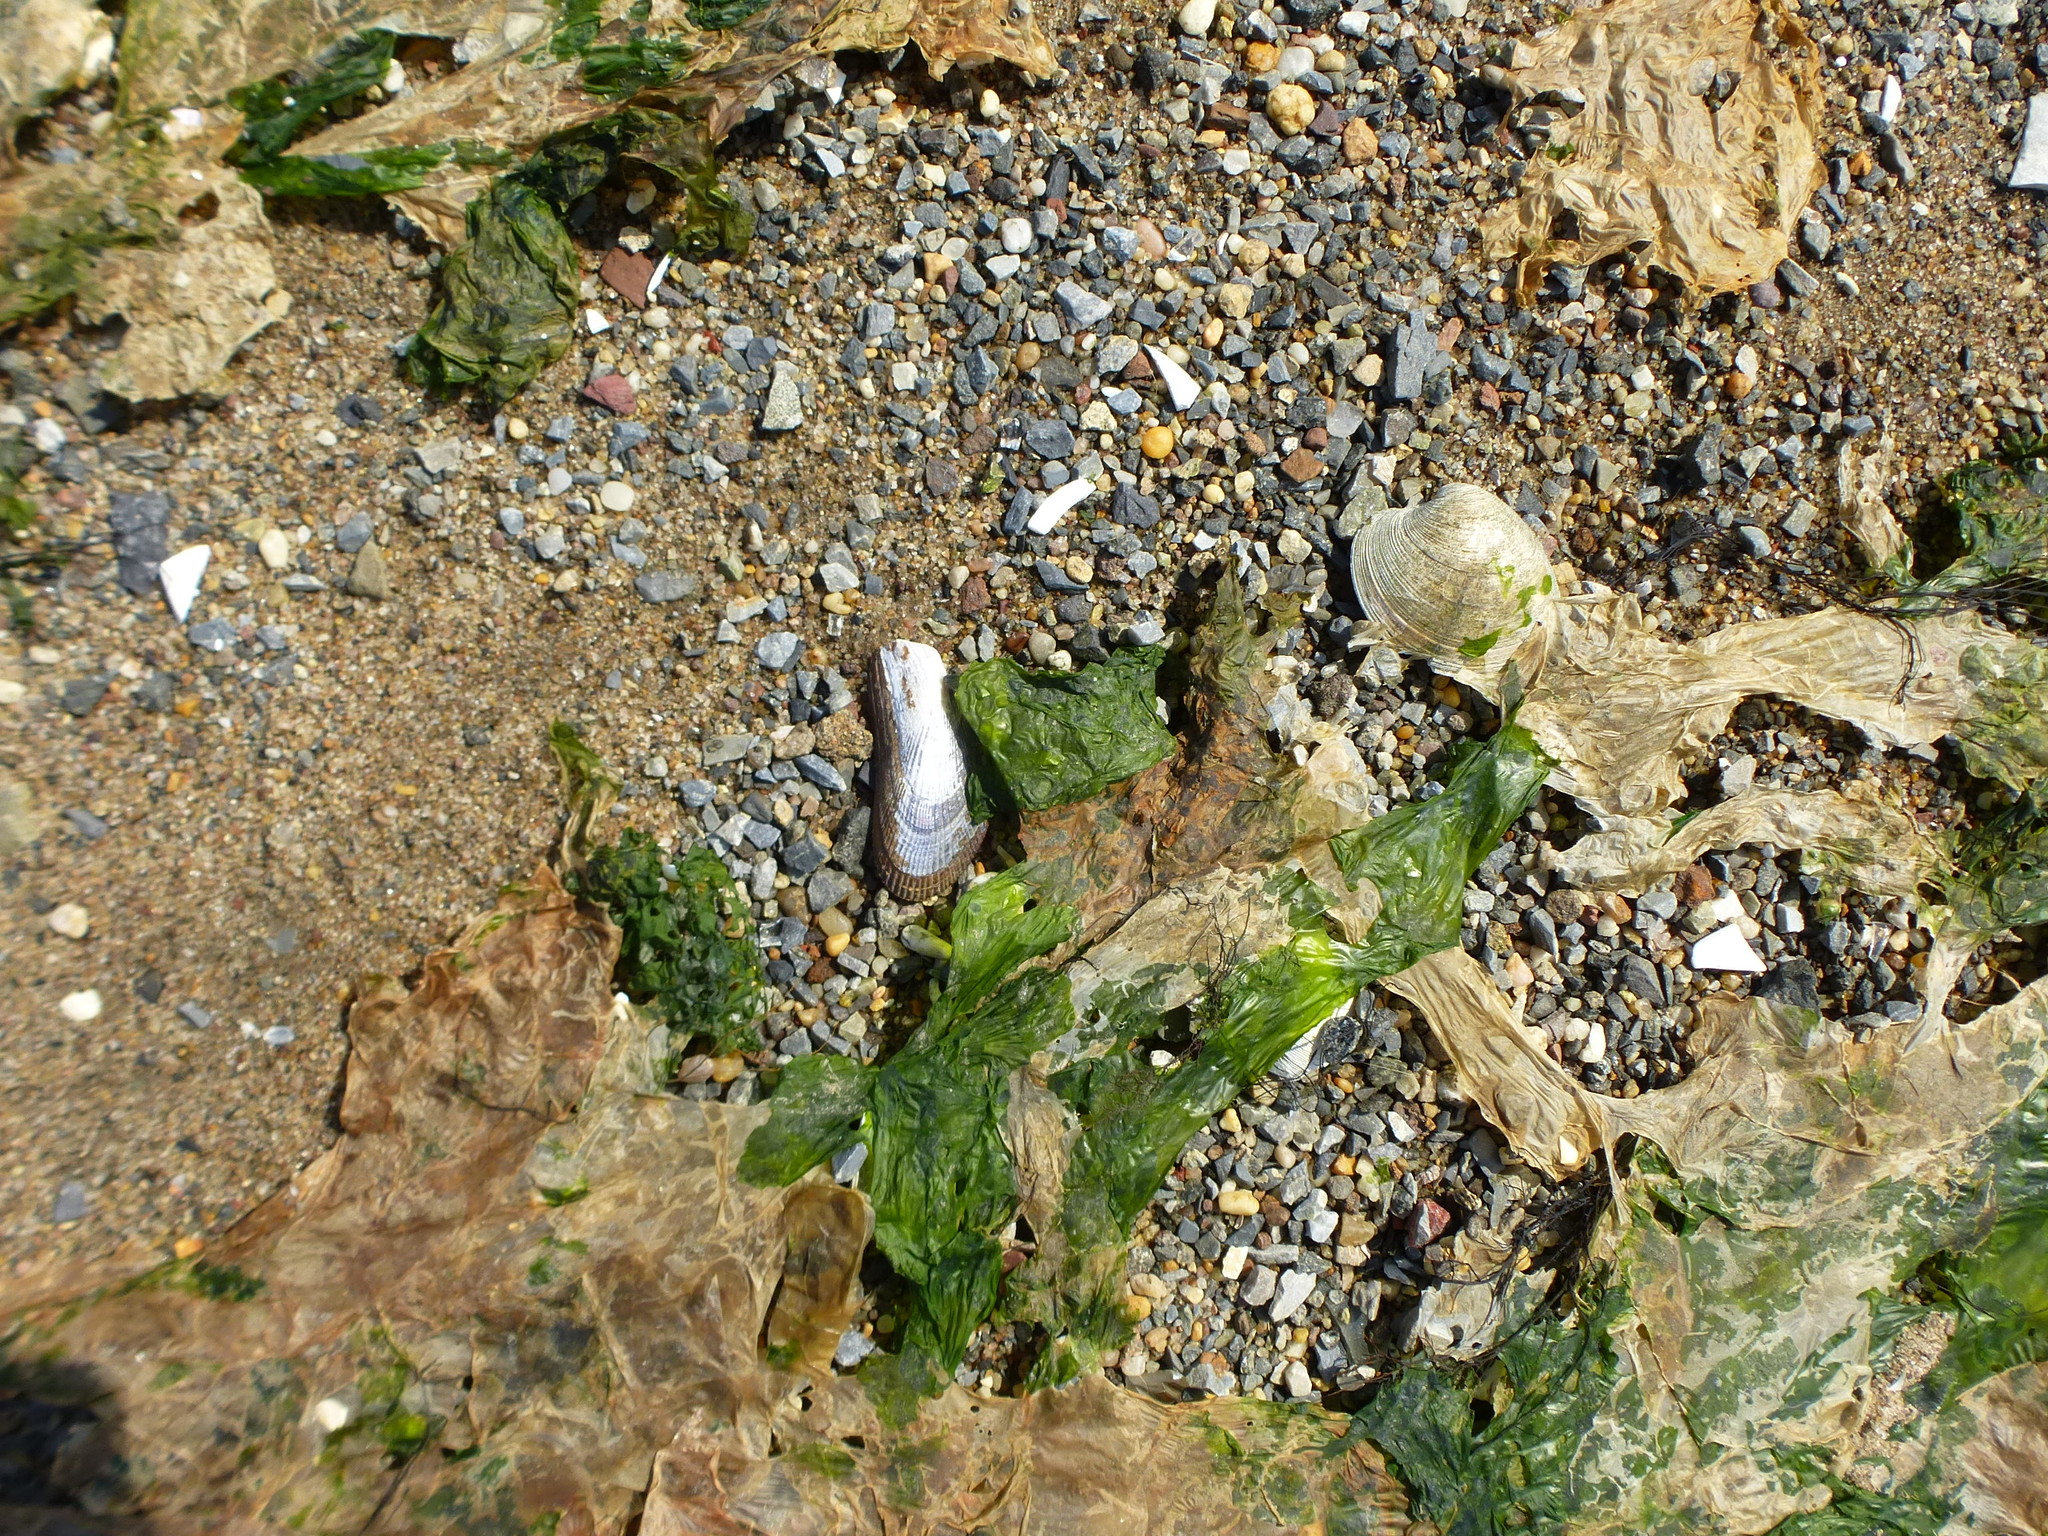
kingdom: Animalia
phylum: Mollusca
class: Bivalvia
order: Mytilida
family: Mytilidae
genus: Geukensia
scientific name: Geukensia demissa
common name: Ribbed mussel
